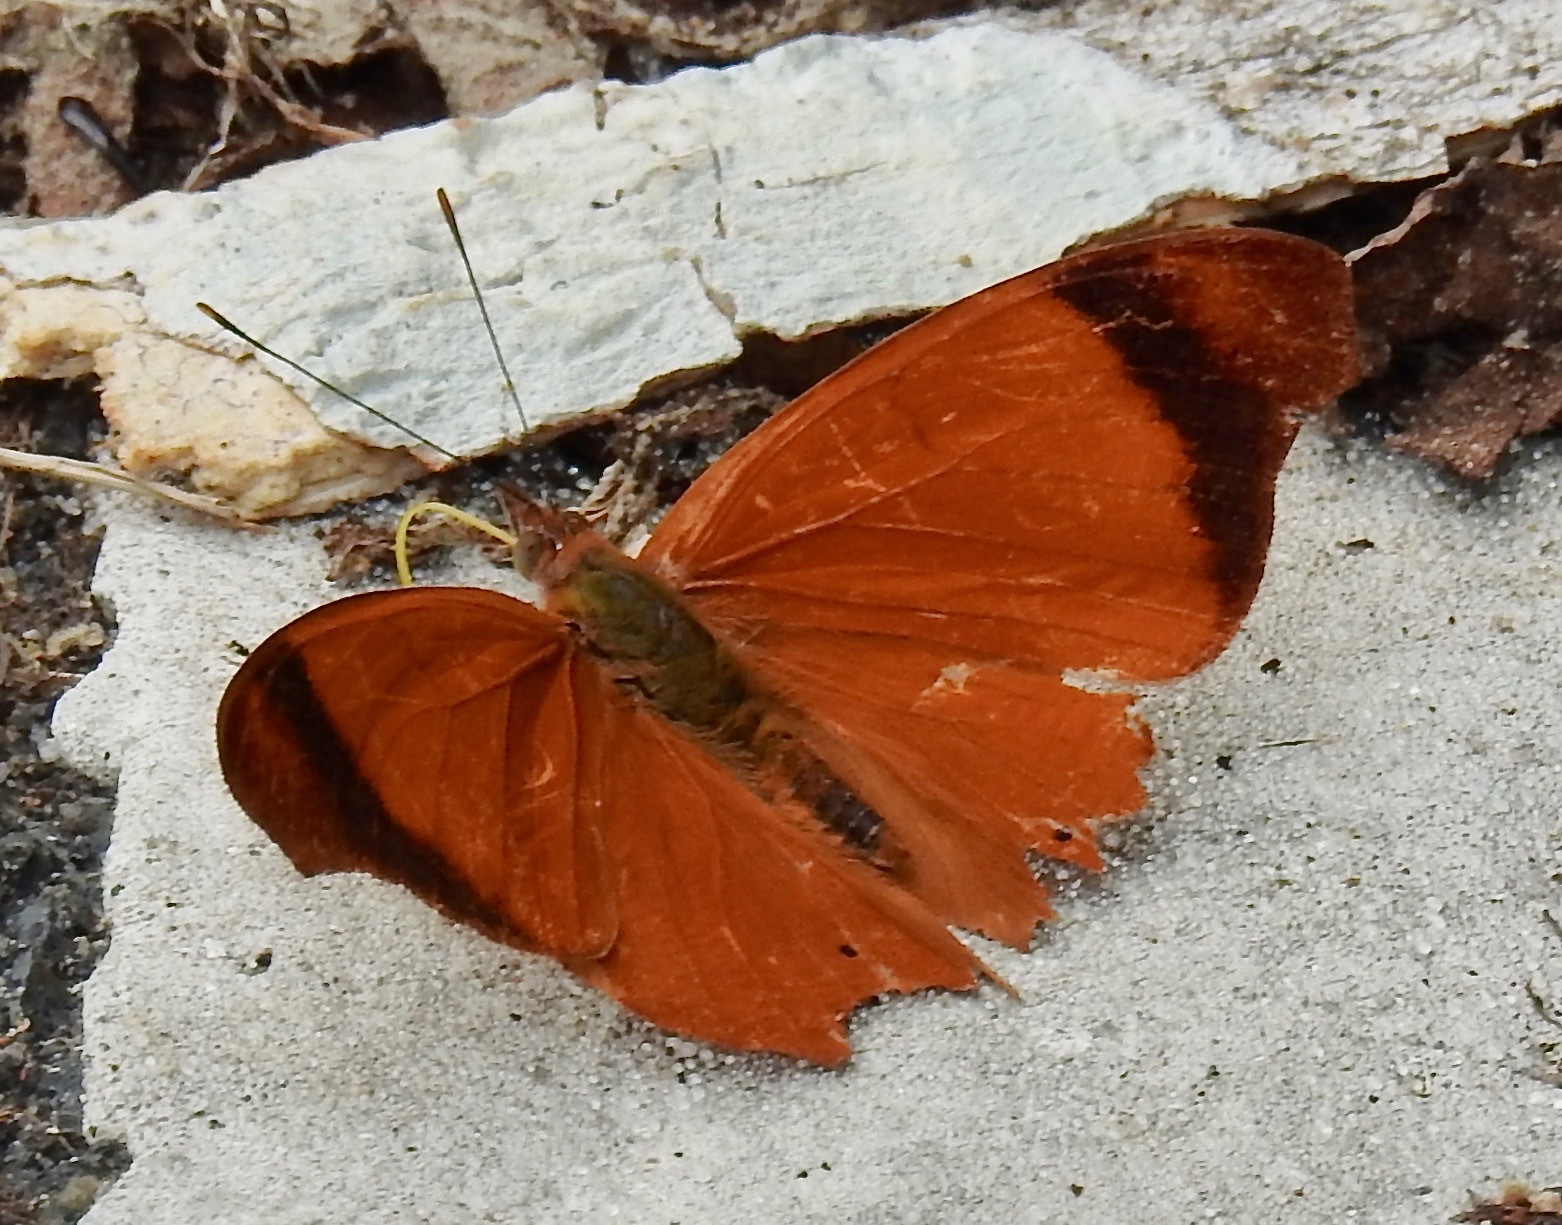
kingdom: Animalia
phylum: Arthropoda
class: Insecta
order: Lepidoptera
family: Nymphalidae
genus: Temenis
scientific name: Temenis laothoe
